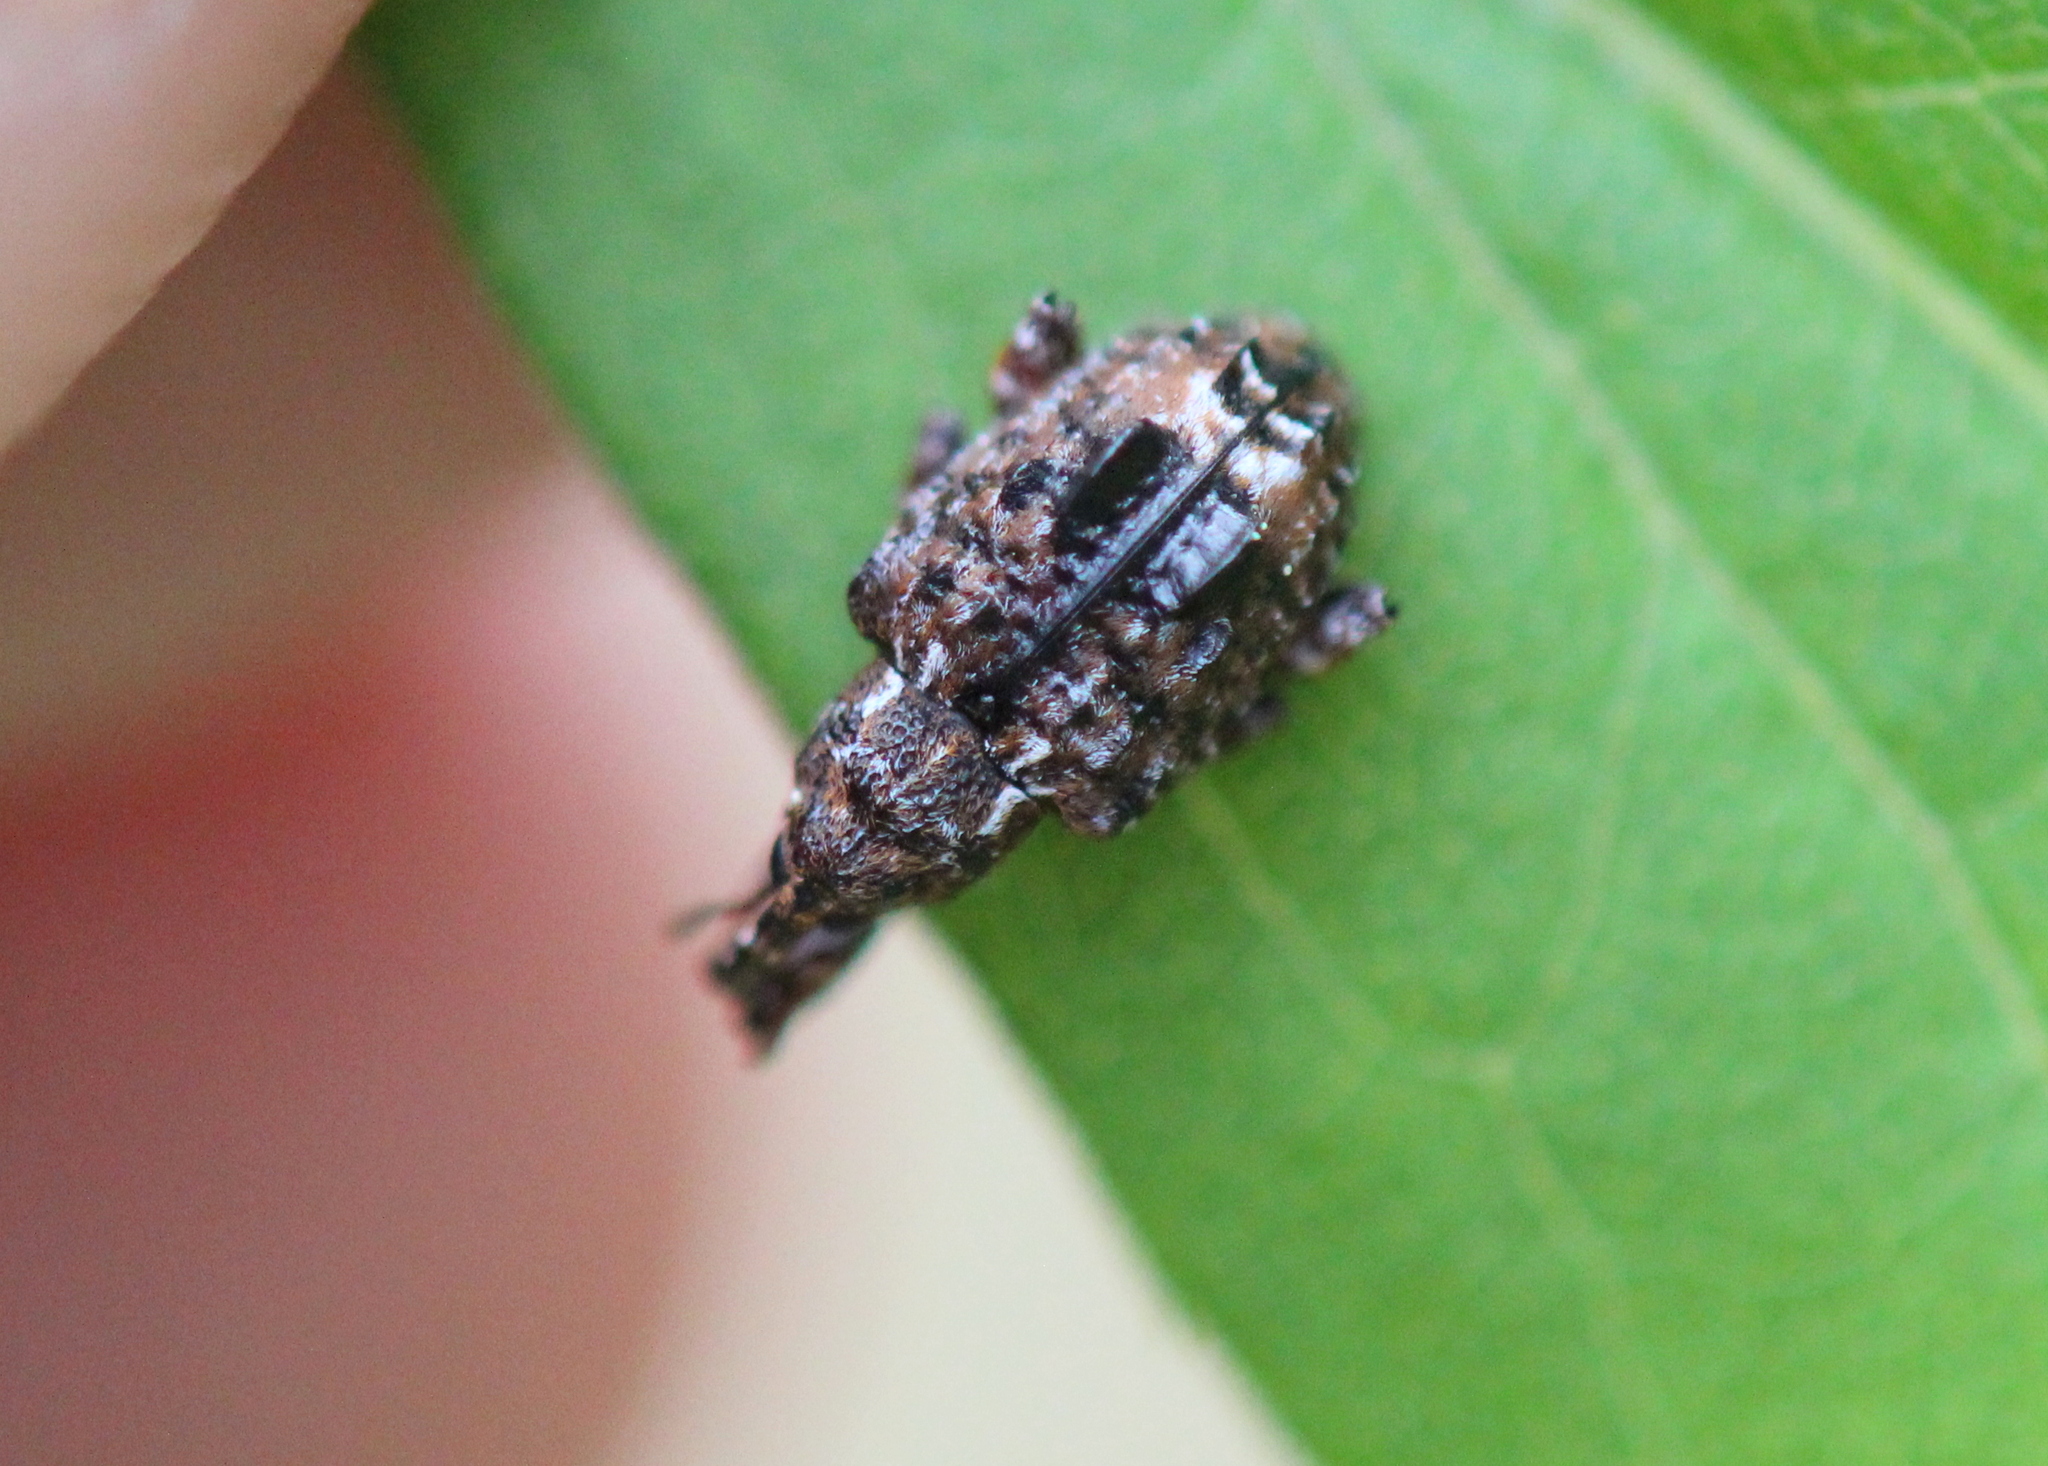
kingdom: Animalia
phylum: Arthropoda
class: Insecta
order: Coleoptera
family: Curculionidae
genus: Conotrachelus
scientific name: Conotrachelus nenuphar
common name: Plum curculio
